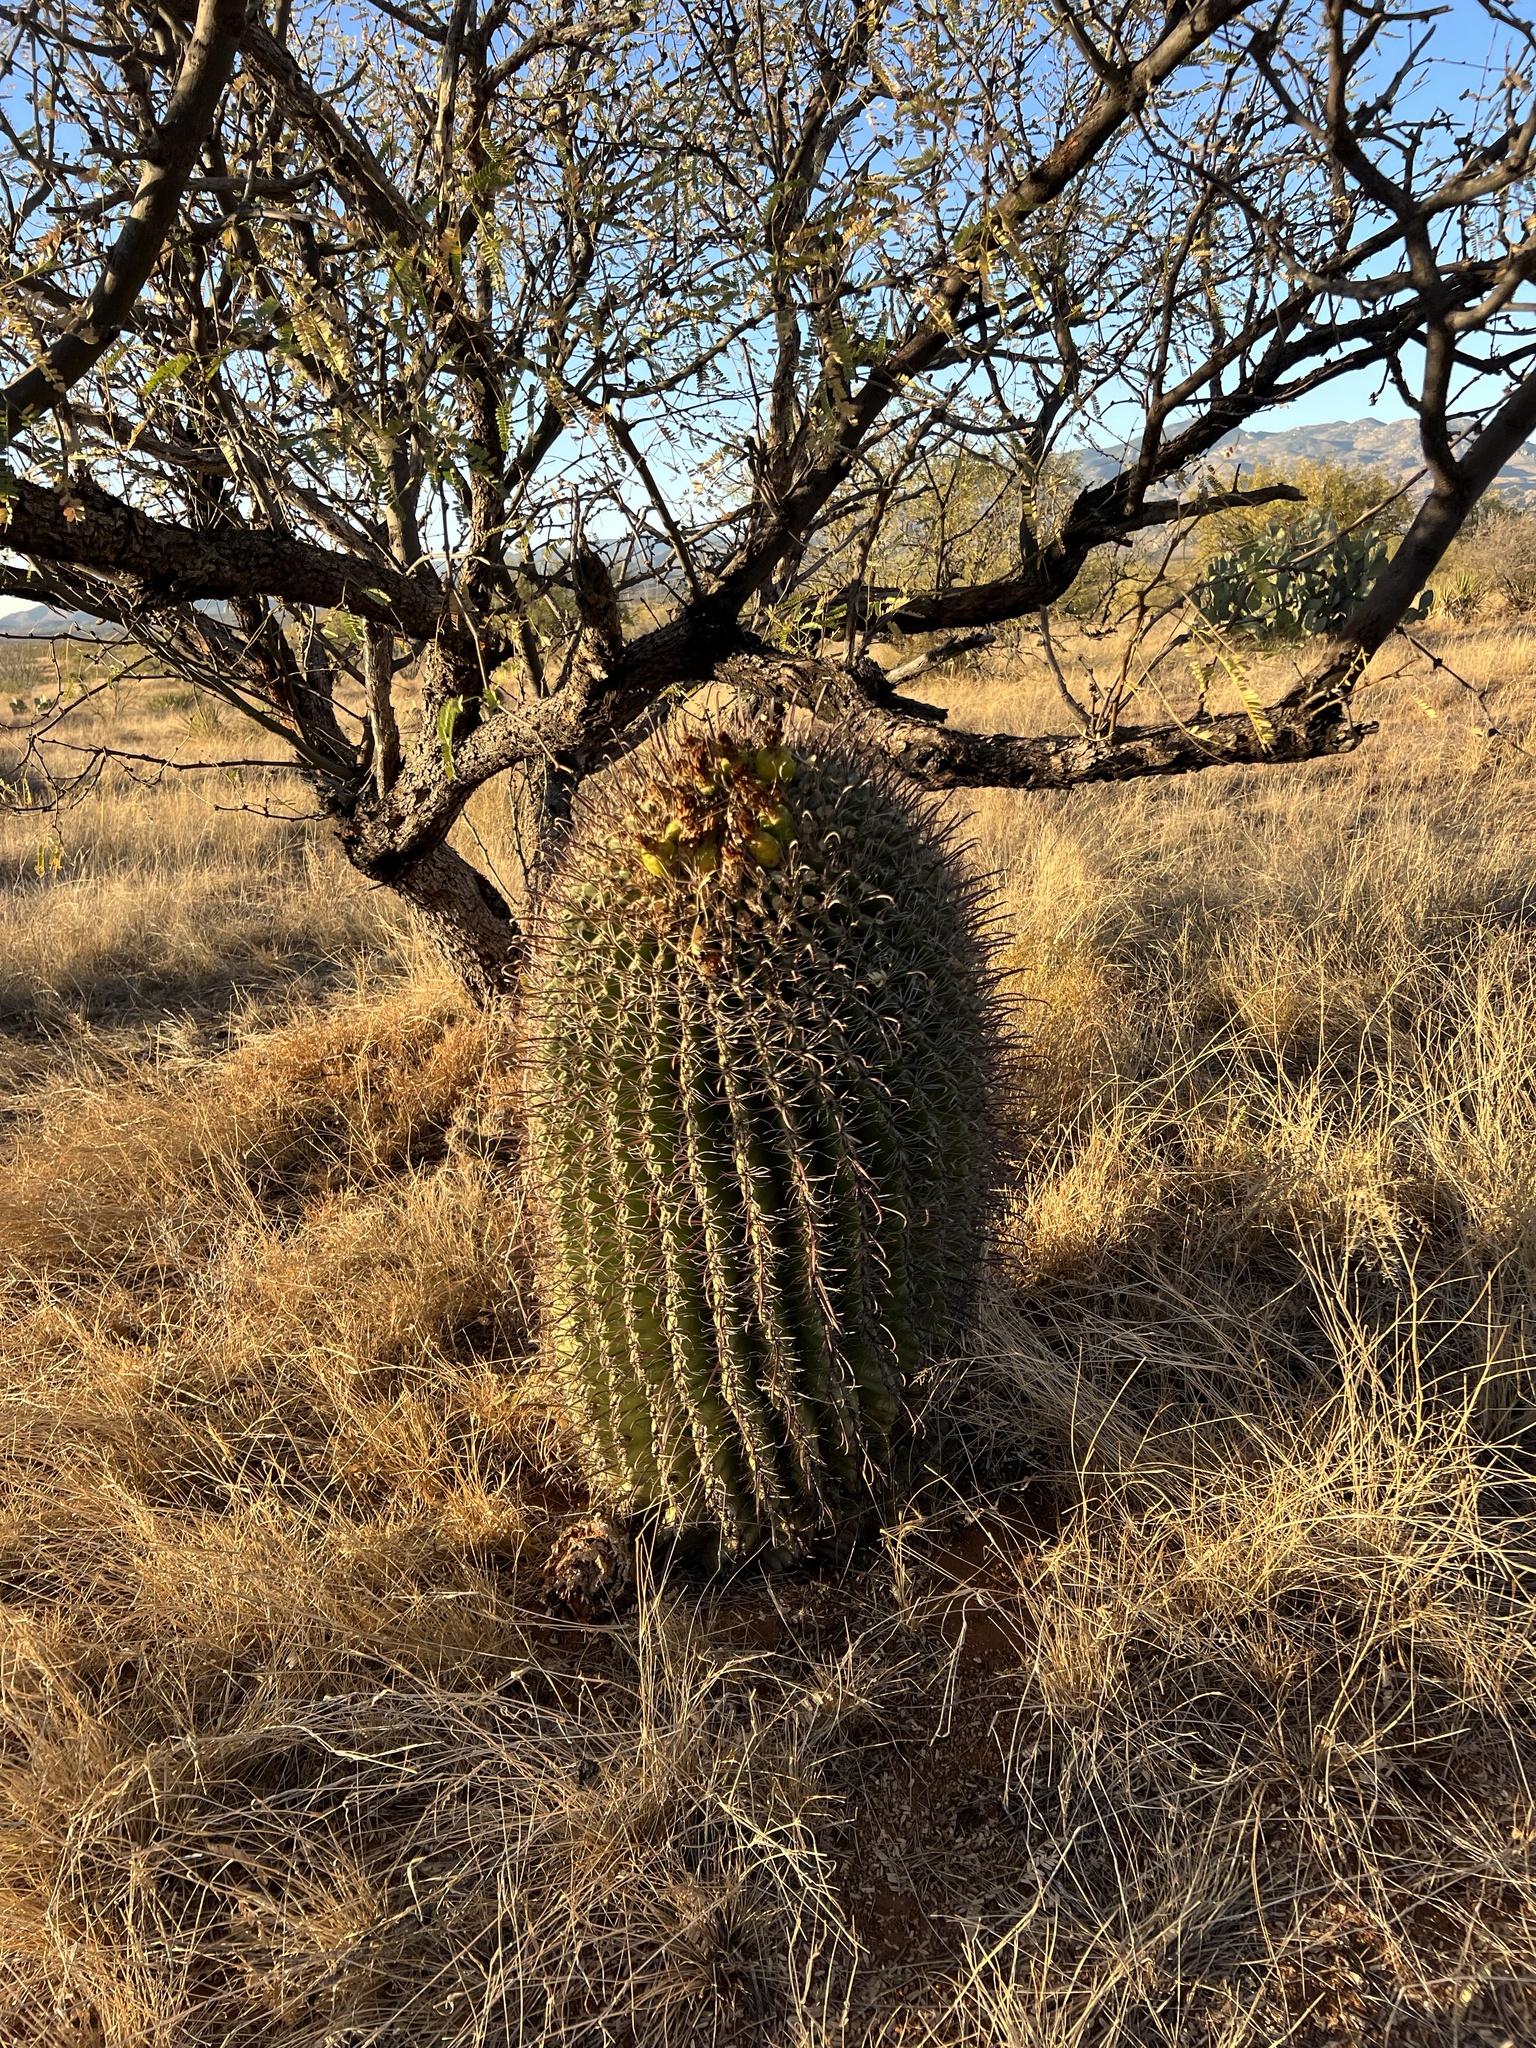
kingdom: Plantae
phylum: Tracheophyta
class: Magnoliopsida
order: Caryophyllales
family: Cactaceae
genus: Ferocactus
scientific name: Ferocactus wislizeni
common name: Candy barrel cactus
